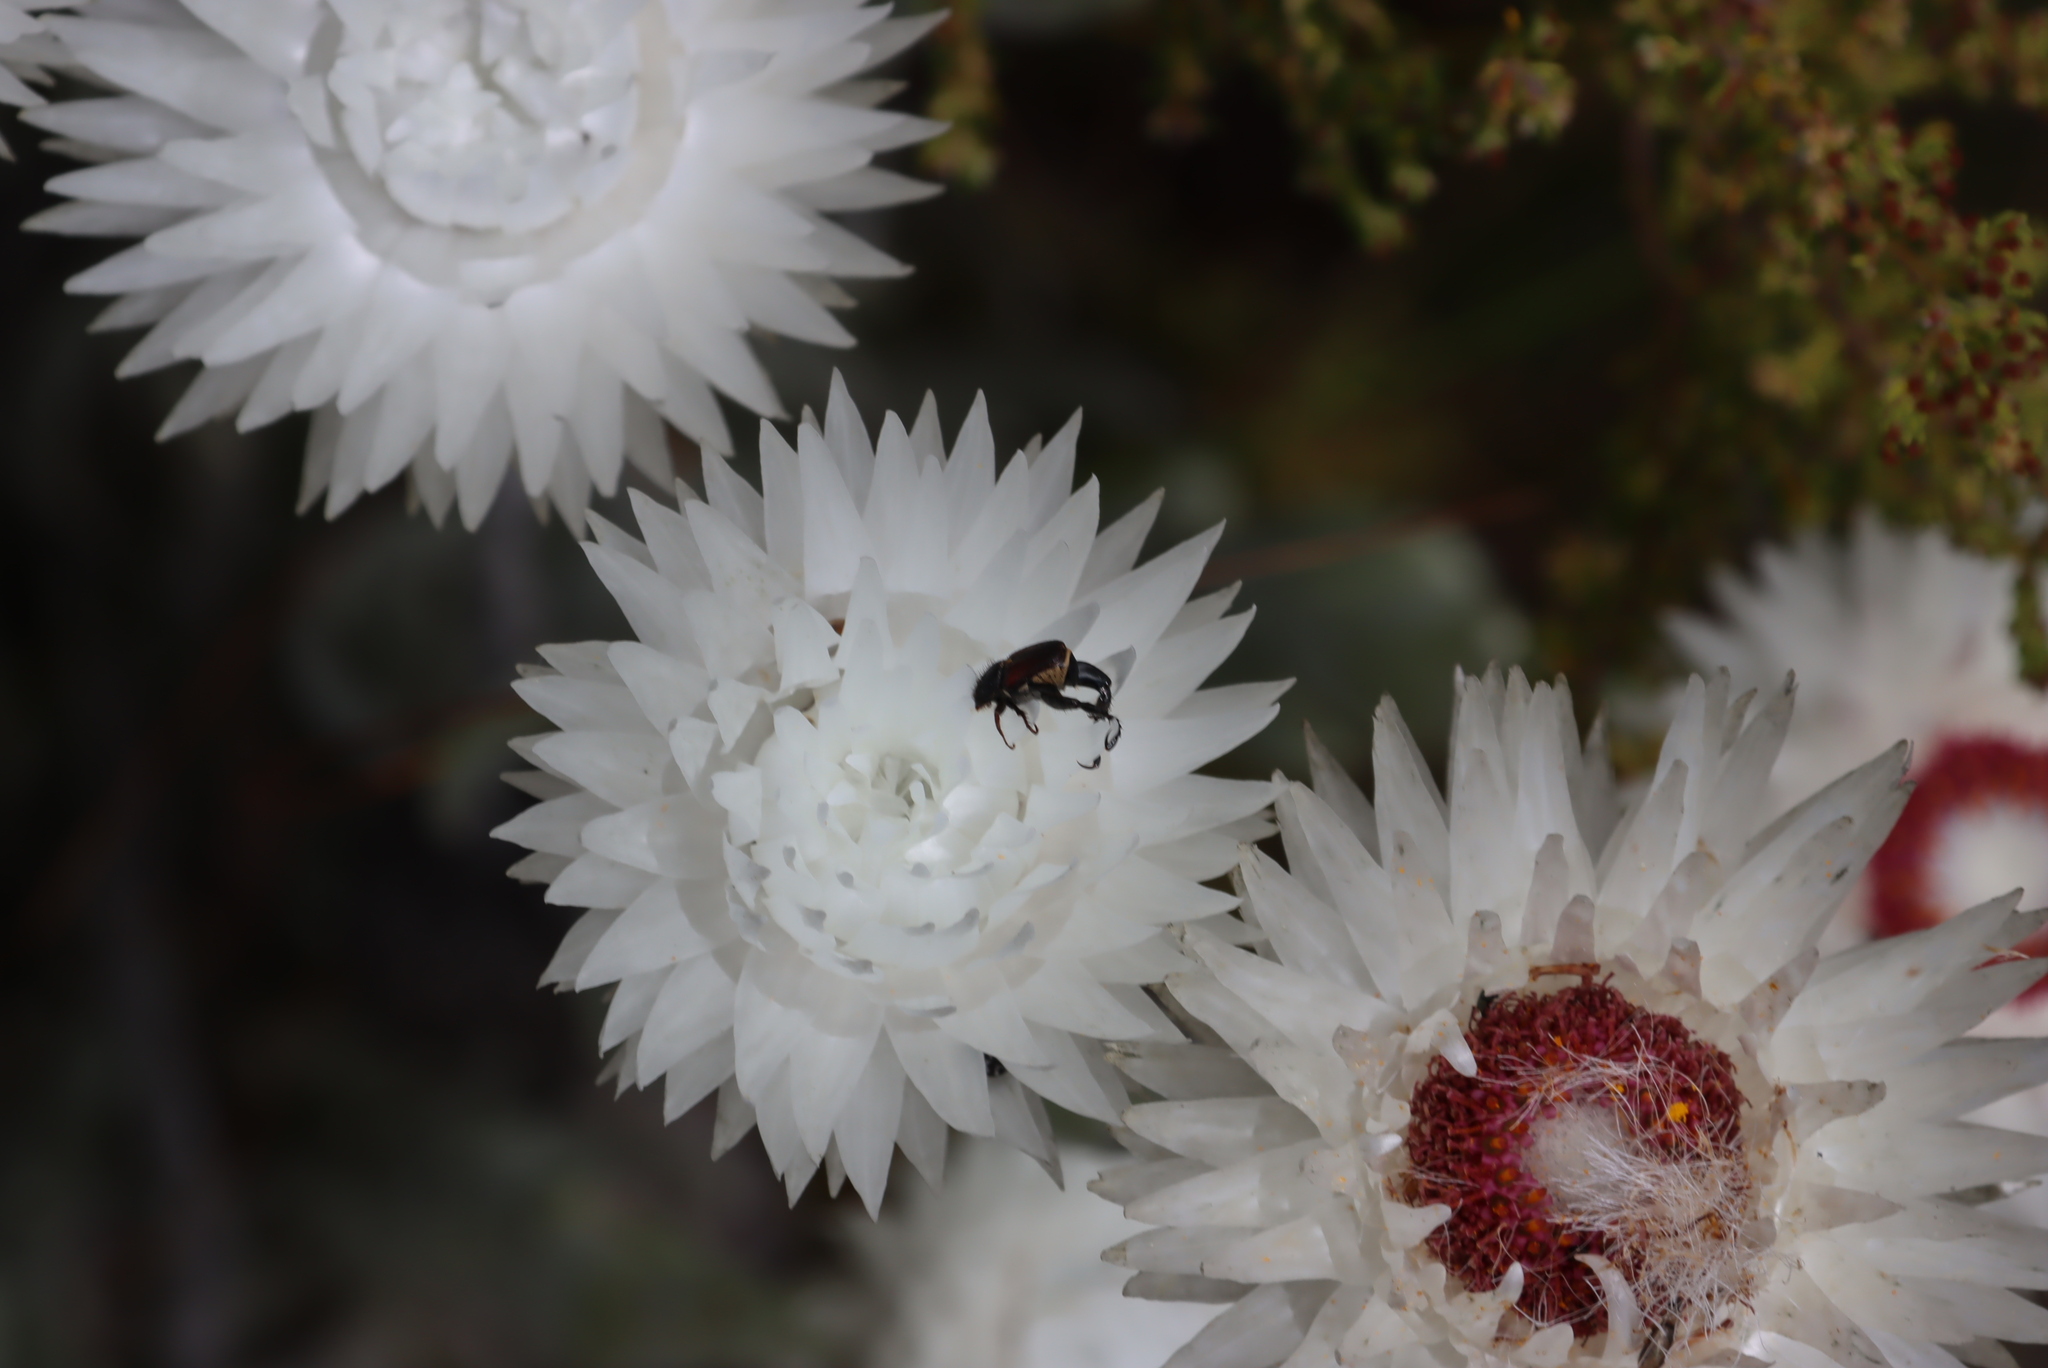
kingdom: Plantae
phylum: Tracheophyta
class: Magnoliopsida
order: Asterales
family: Asteraceae
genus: Syncarpha
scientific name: Syncarpha vestita
